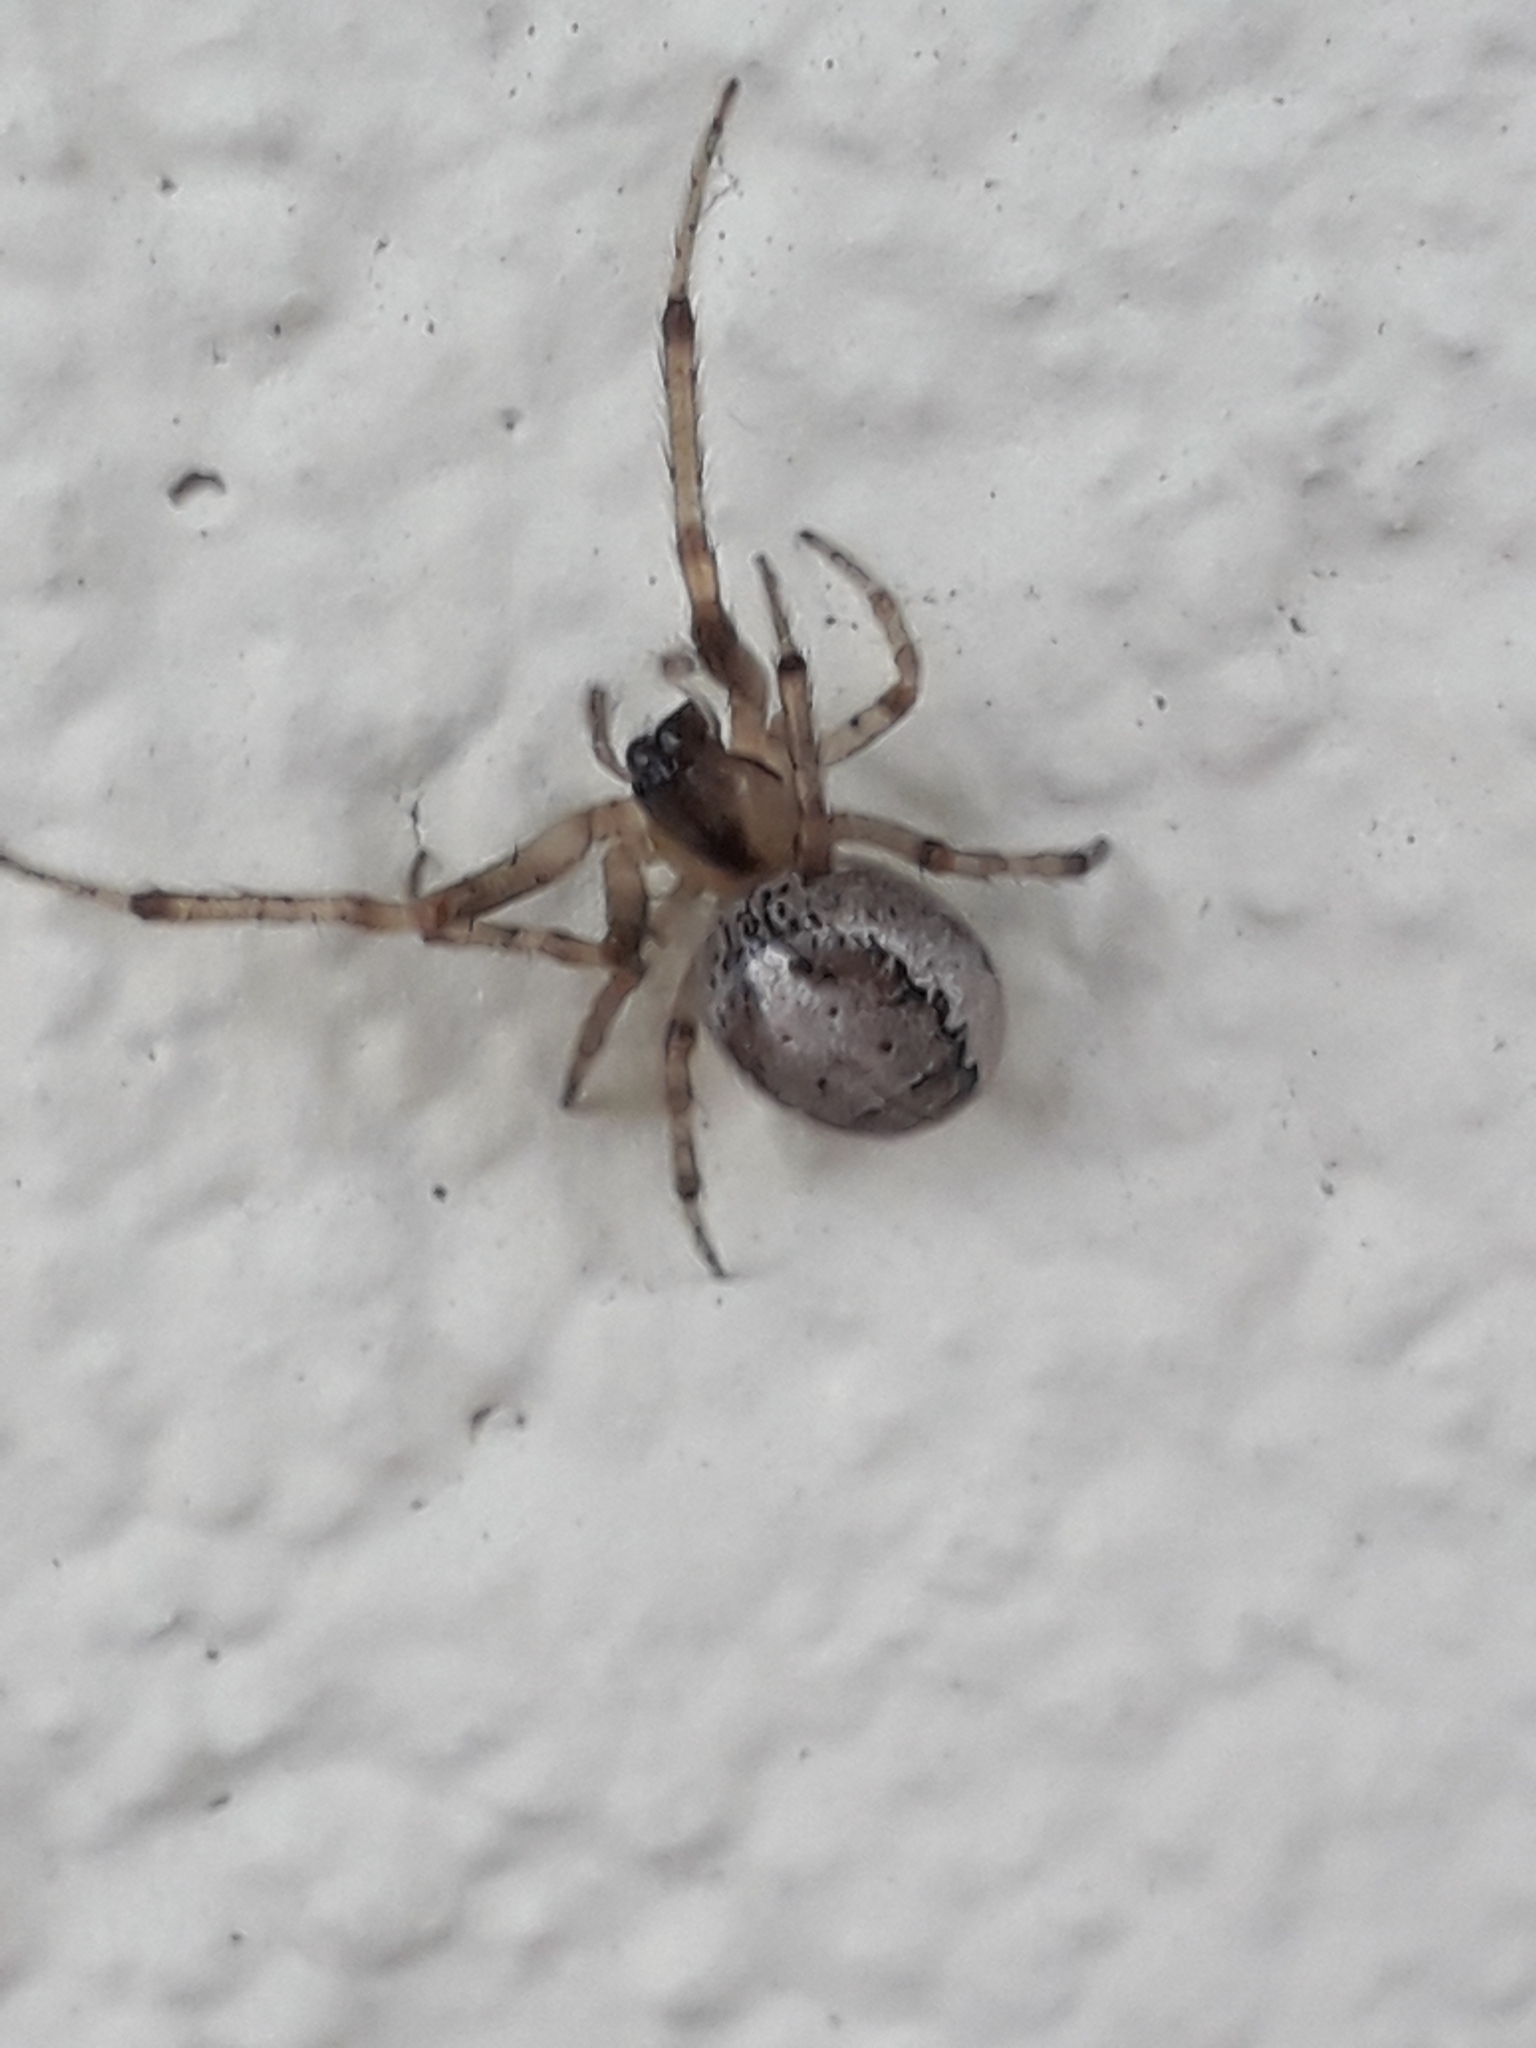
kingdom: Animalia
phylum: Arthropoda
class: Arachnida
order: Araneae
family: Araneidae
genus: Zygiella
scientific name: Zygiella x-notata
